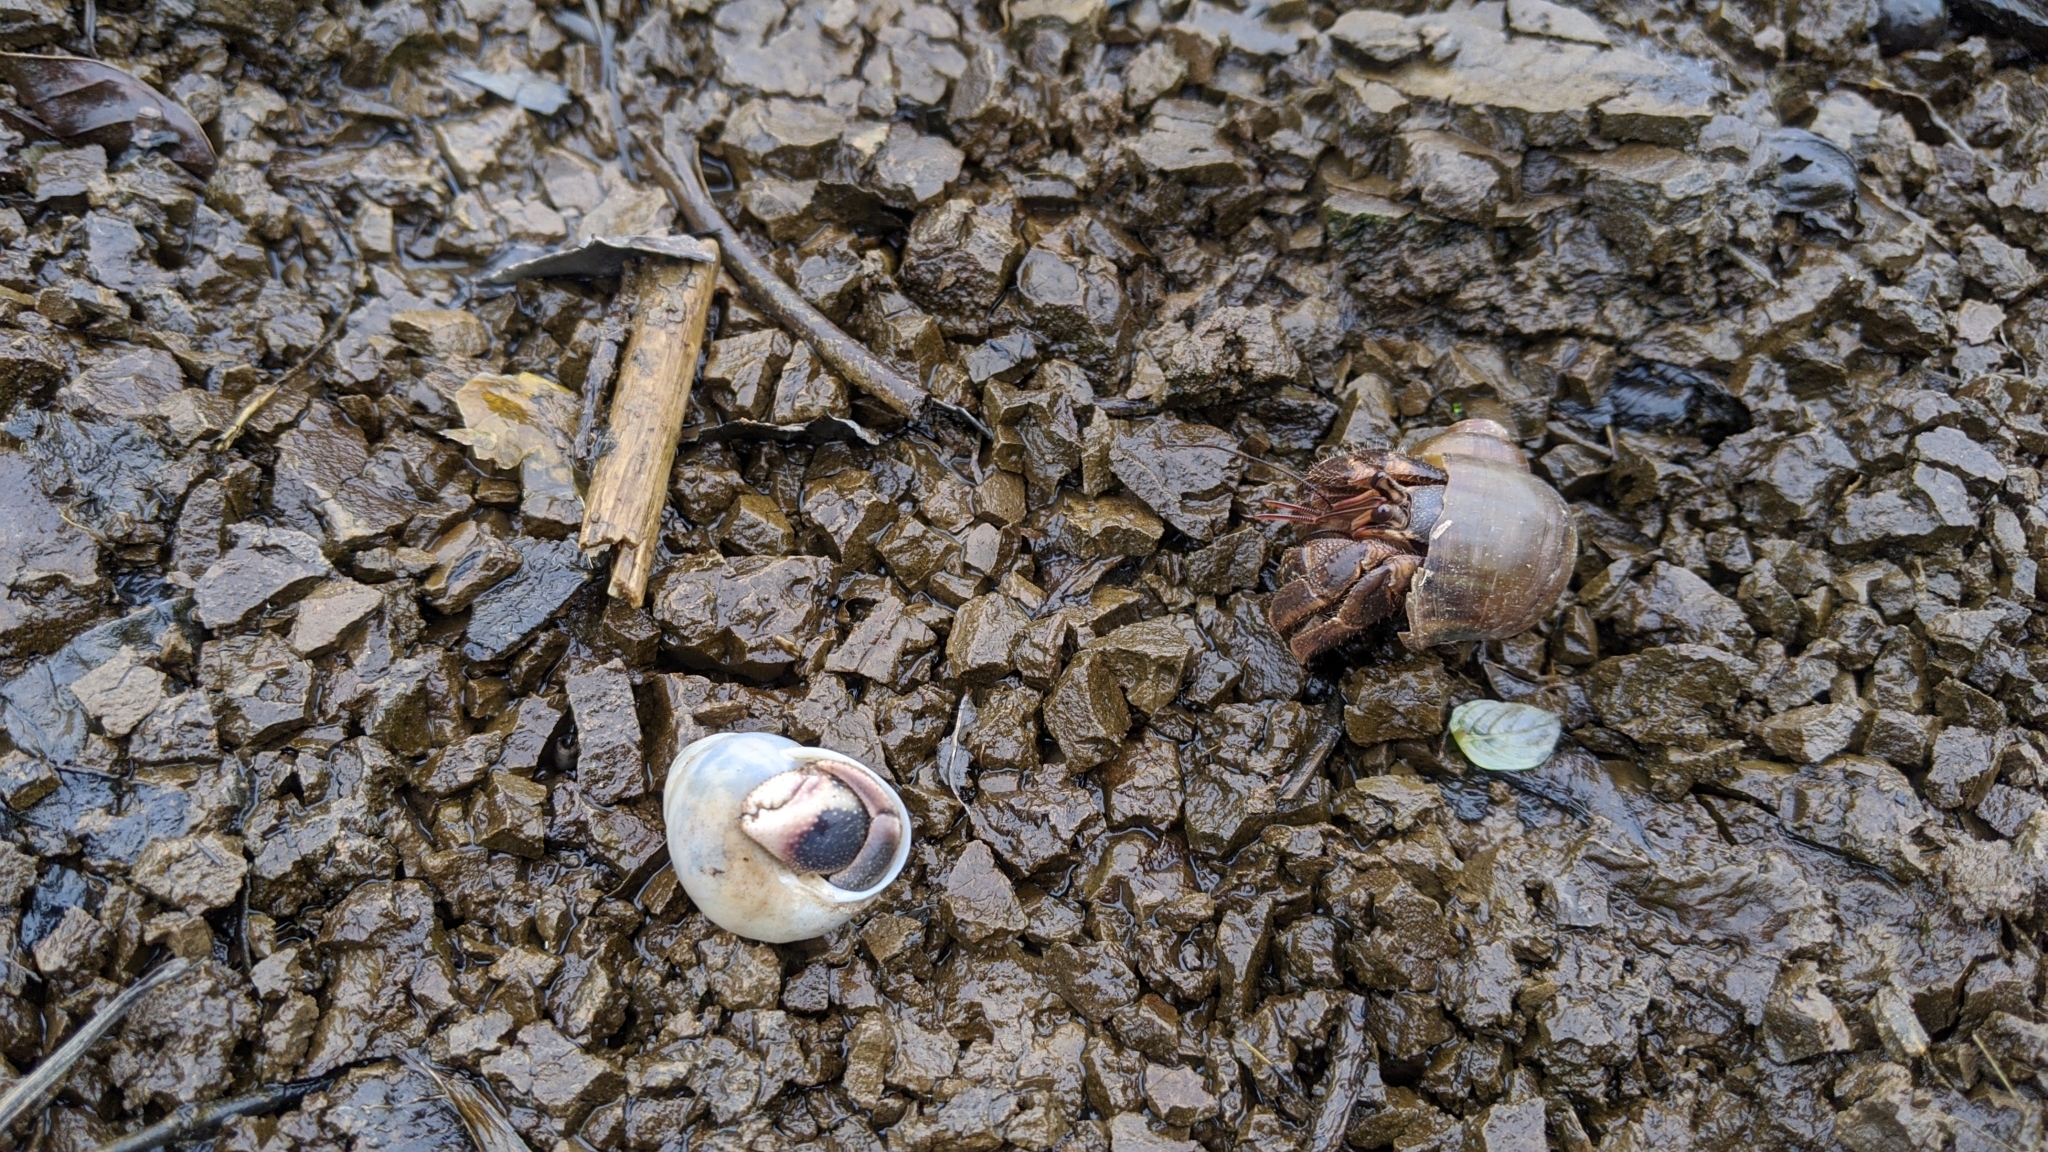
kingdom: Animalia
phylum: Arthropoda
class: Malacostraca
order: Decapoda
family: Coenobitidae
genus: Coenobita
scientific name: Coenobita cavipes
